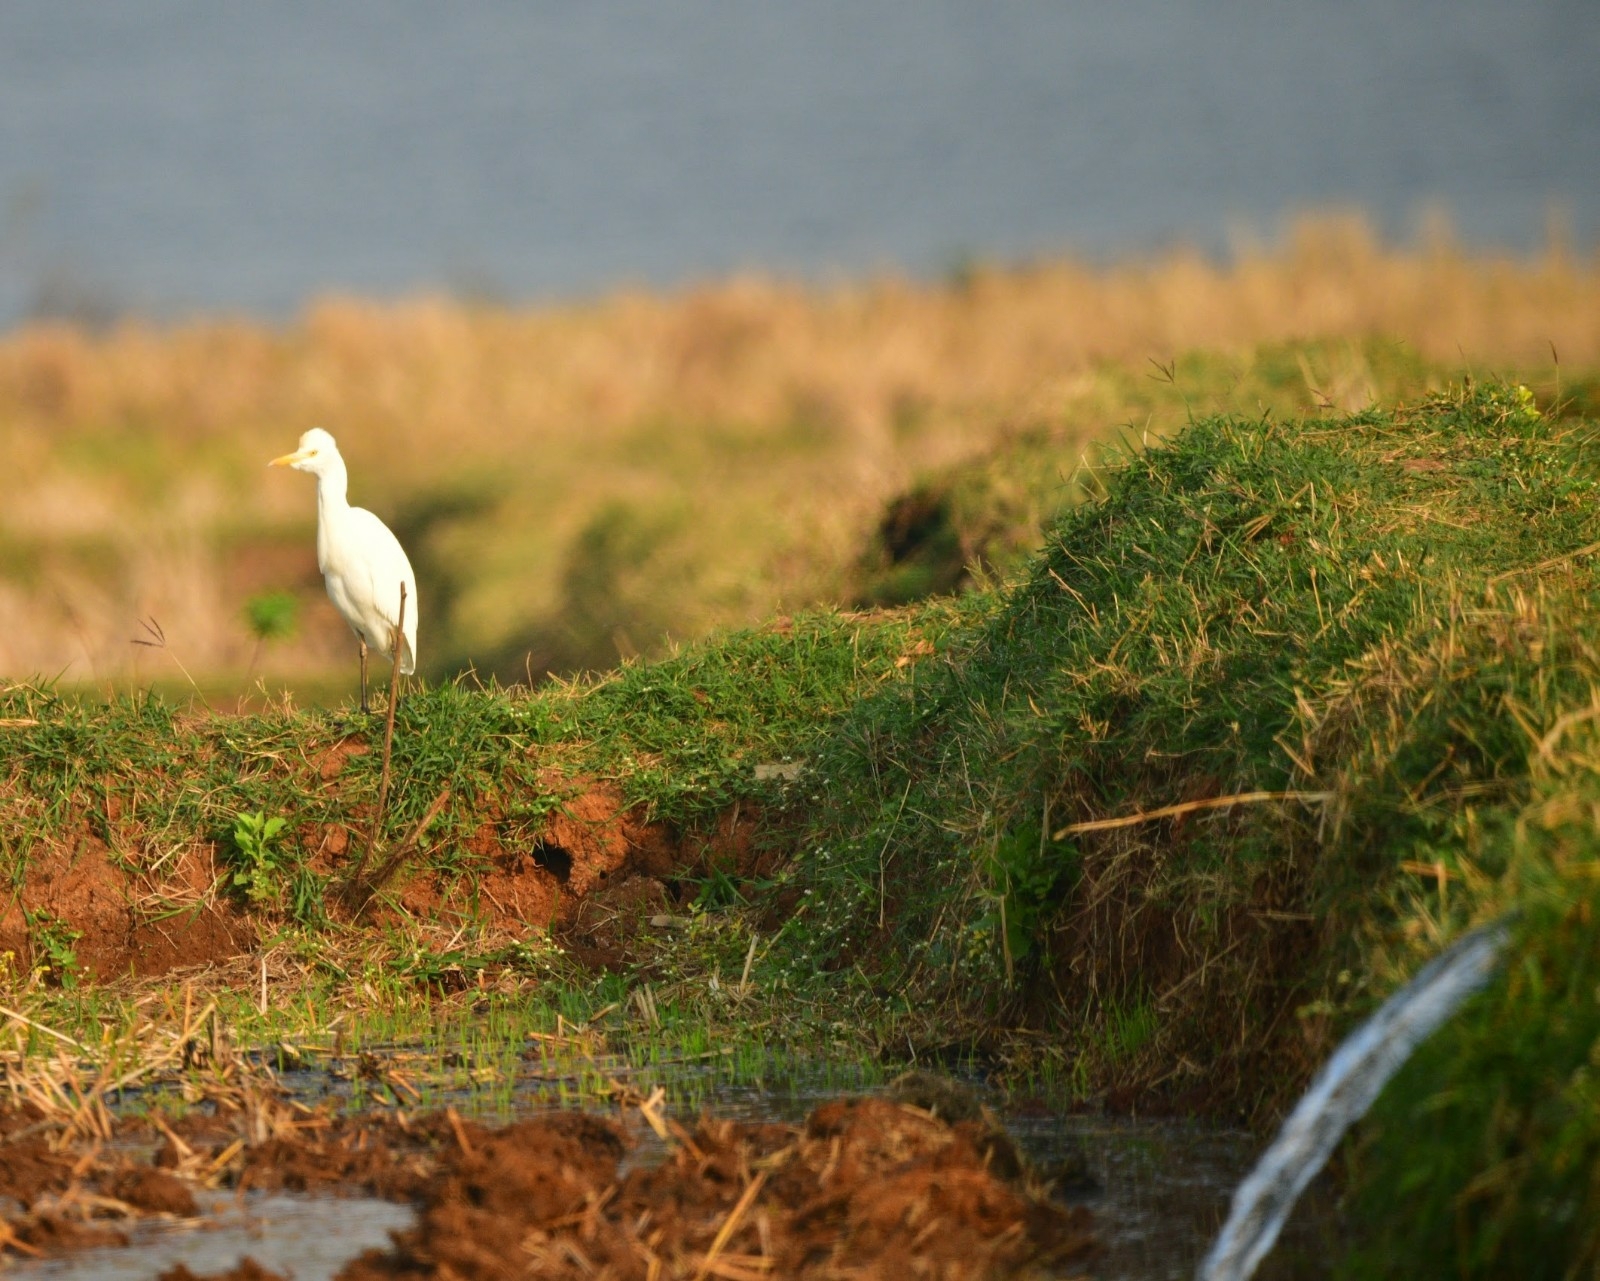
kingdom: Animalia
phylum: Chordata
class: Aves
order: Pelecaniformes
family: Ardeidae
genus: Bubulcus
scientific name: Bubulcus coromandus
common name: Eastern cattle egret
